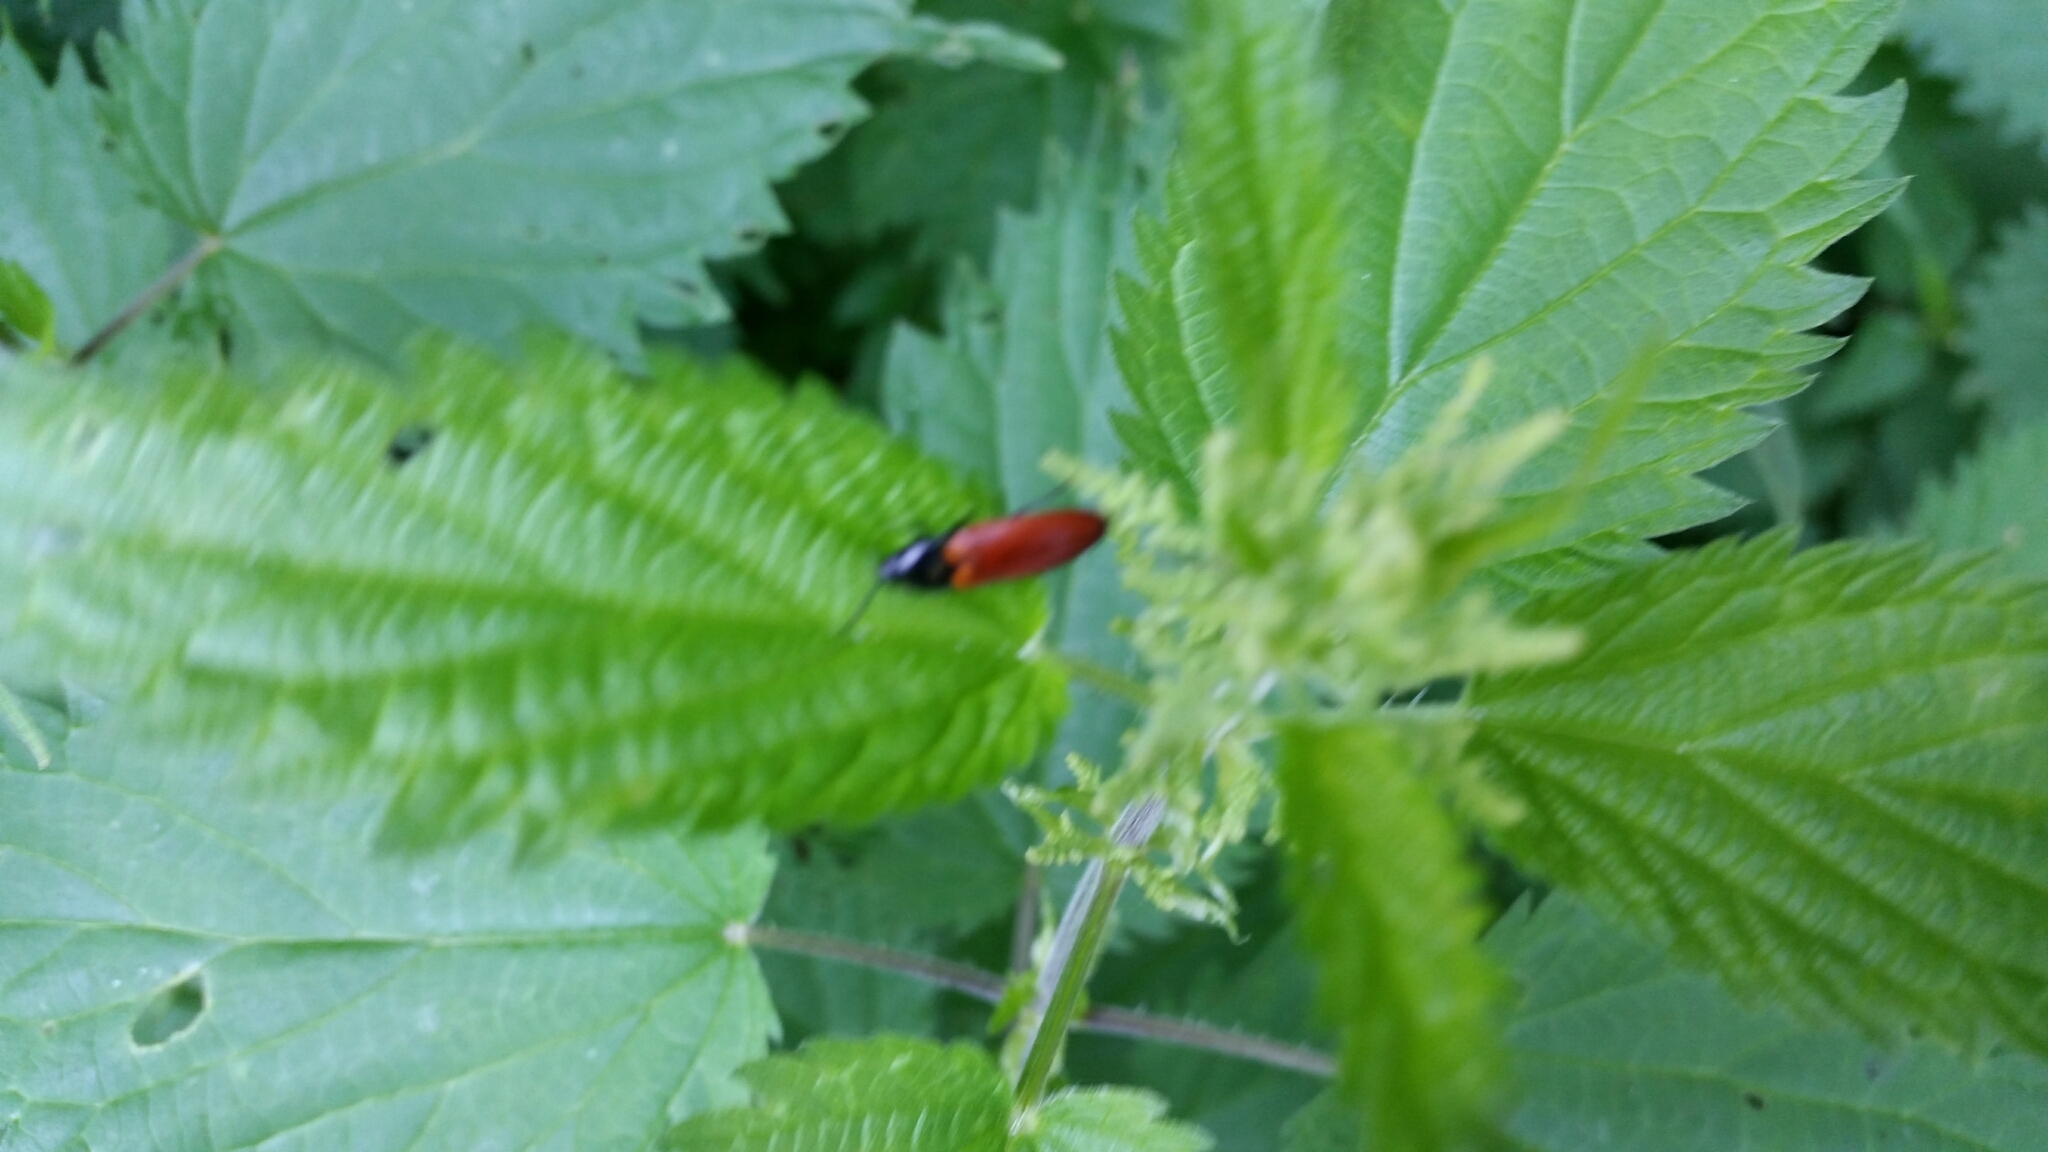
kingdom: Animalia
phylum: Arthropoda
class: Insecta
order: Coleoptera
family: Elateridae
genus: Ampedus
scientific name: Ampedus
